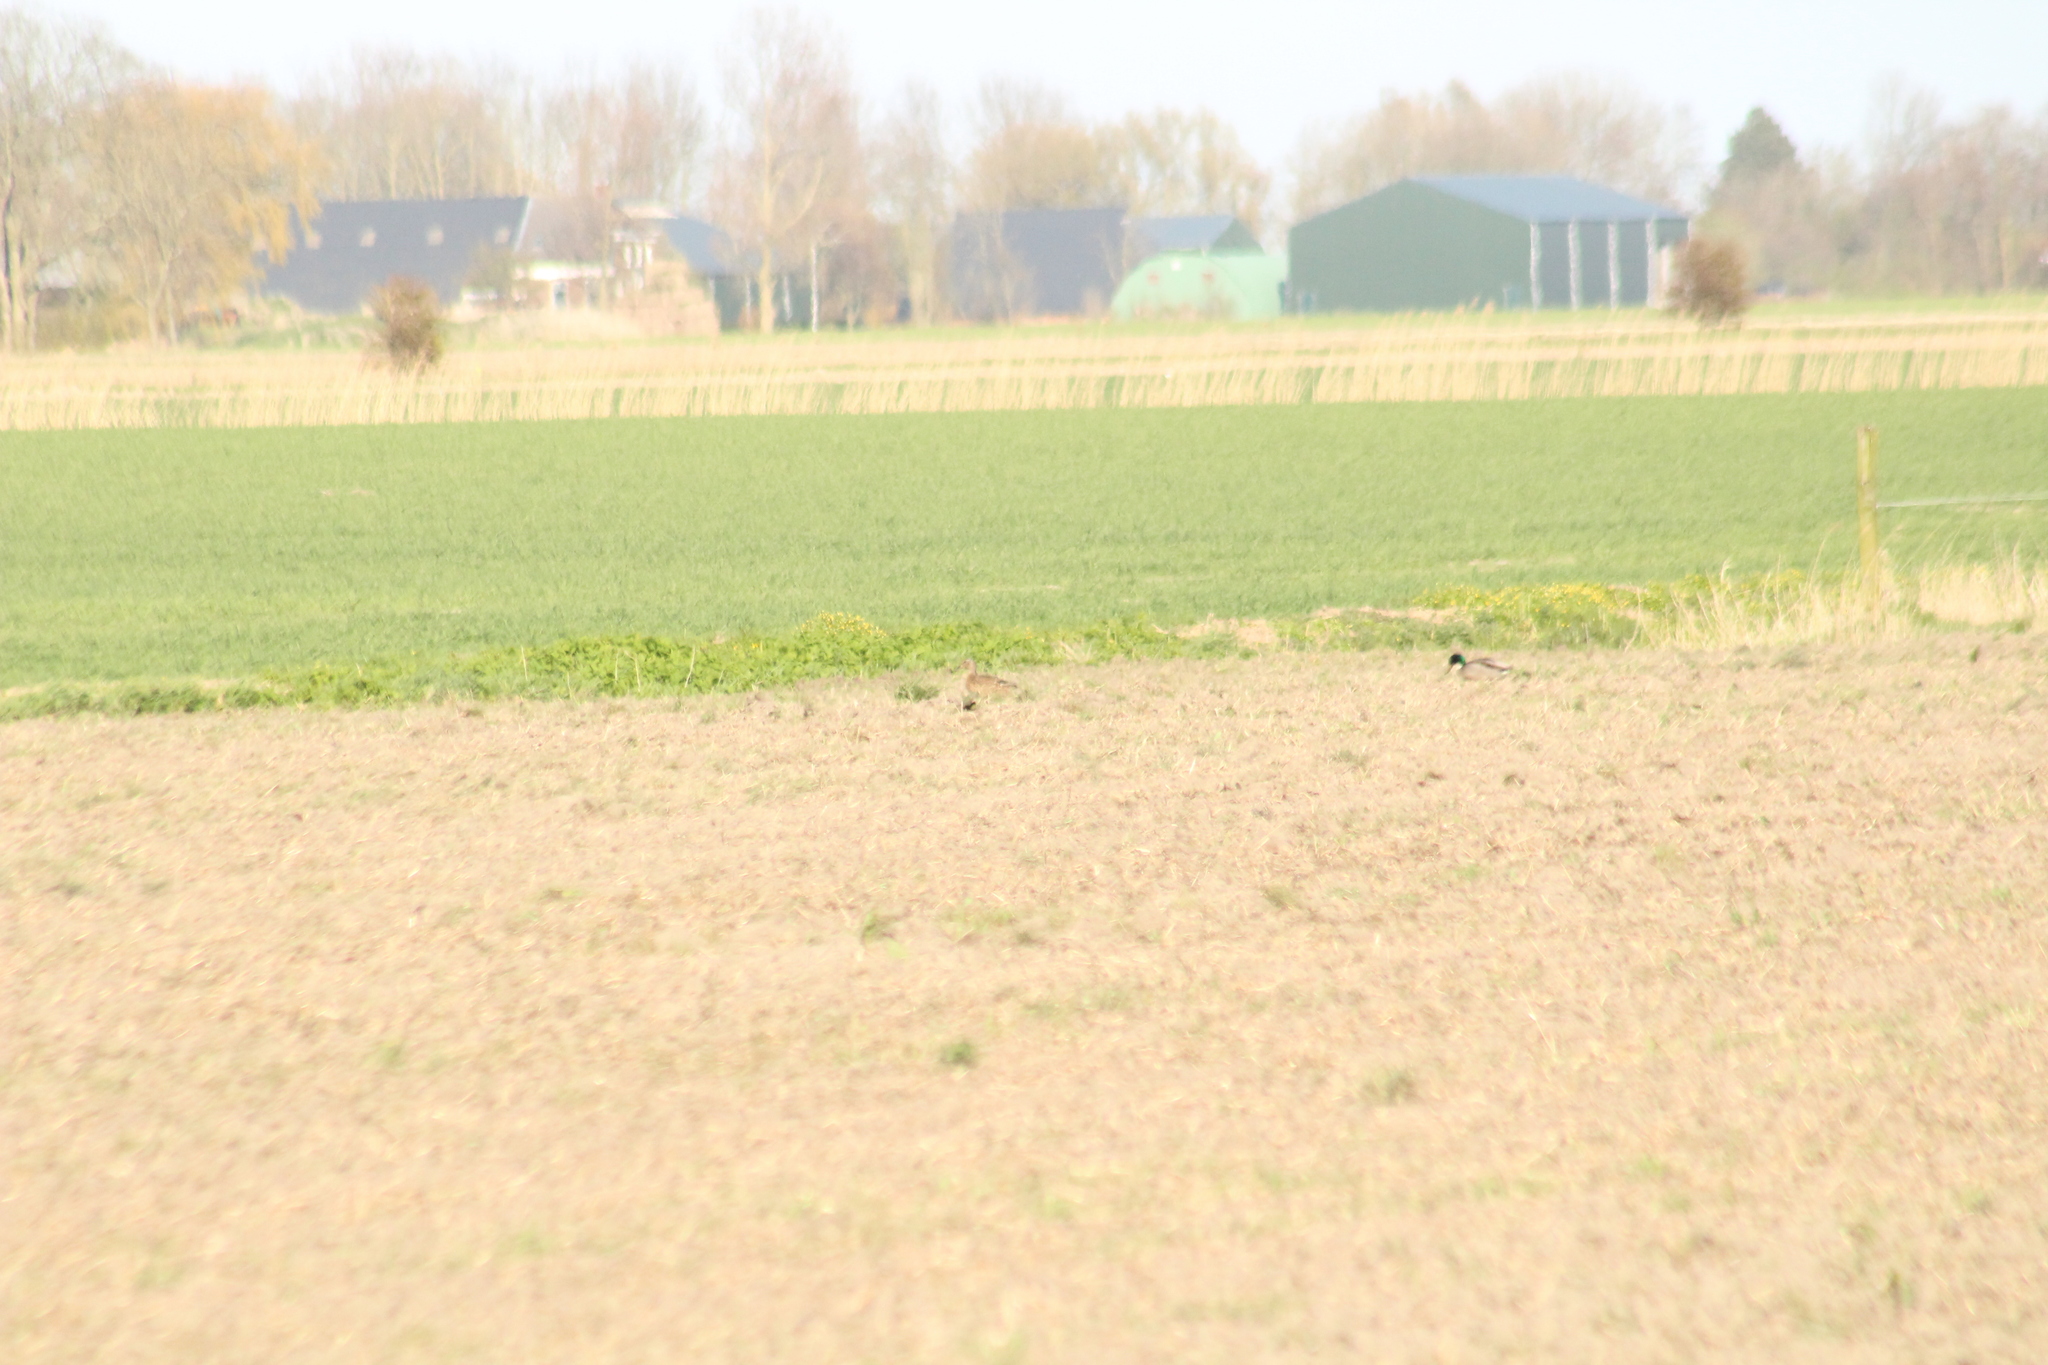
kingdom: Animalia
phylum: Chordata
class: Aves
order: Anseriformes
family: Anatidae
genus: Anas
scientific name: Anas platyrhynchos
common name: Mallard
